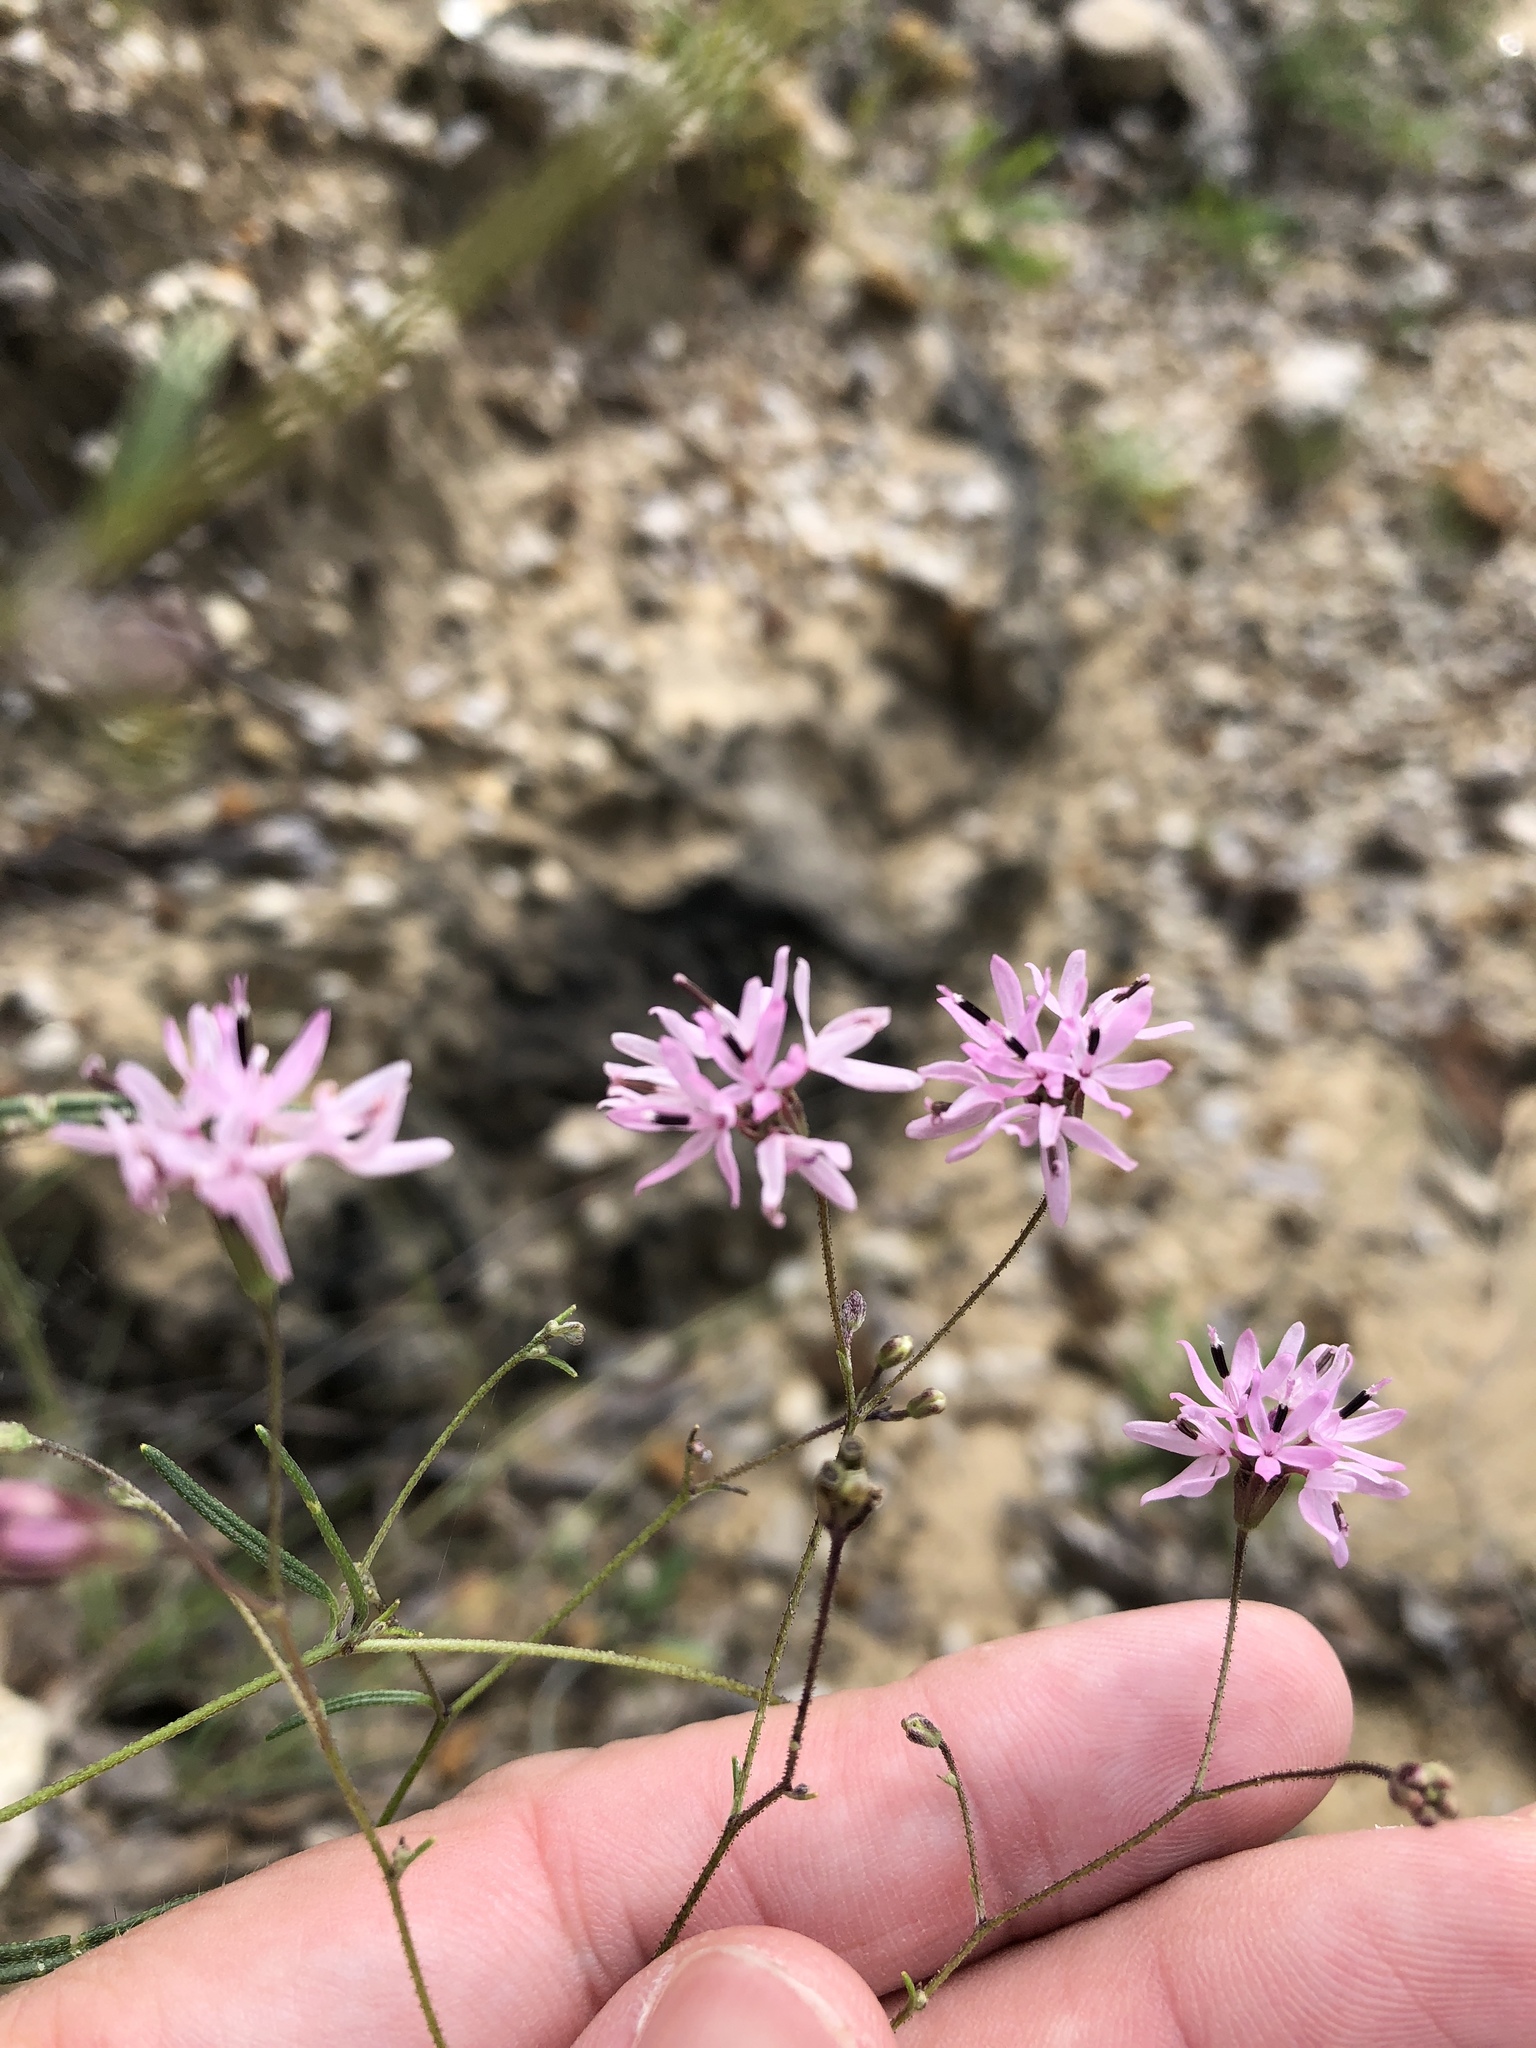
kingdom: Plantae
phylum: Tracheophyta
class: Magnoliopsida
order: Asterales
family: Asteraceae
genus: Palafoxia
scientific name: Palafoxia callosa
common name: Small palafox
